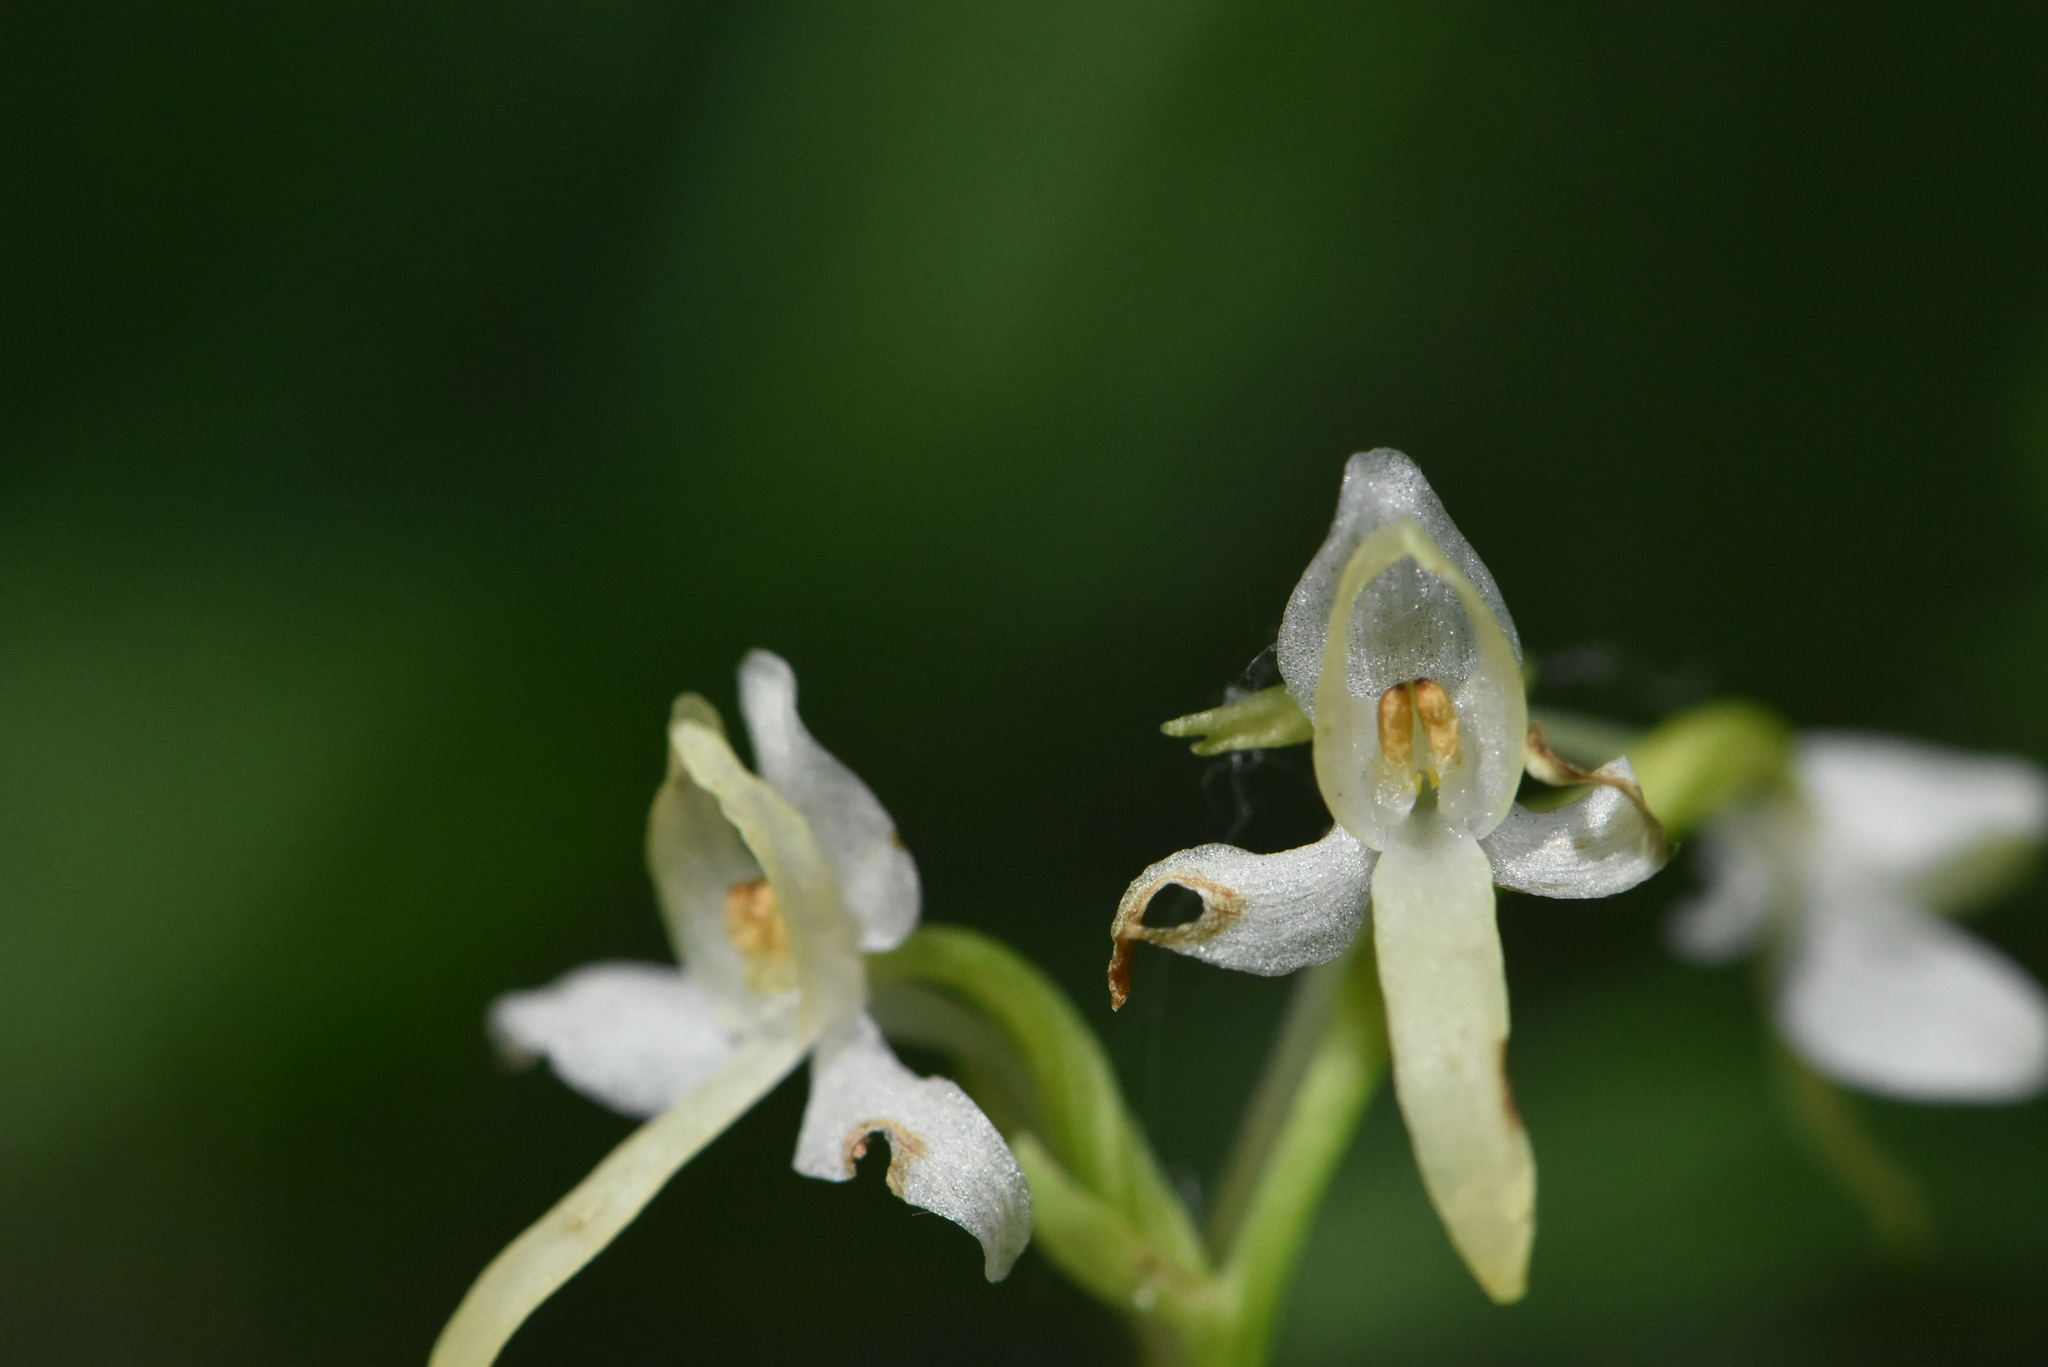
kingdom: Plantae
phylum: Tracheophyta
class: Liliopsida
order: Asparagales
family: Orchidaceae
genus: Platanthera
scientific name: Platanthera bifolia
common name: Lesser butterfly-orchid
